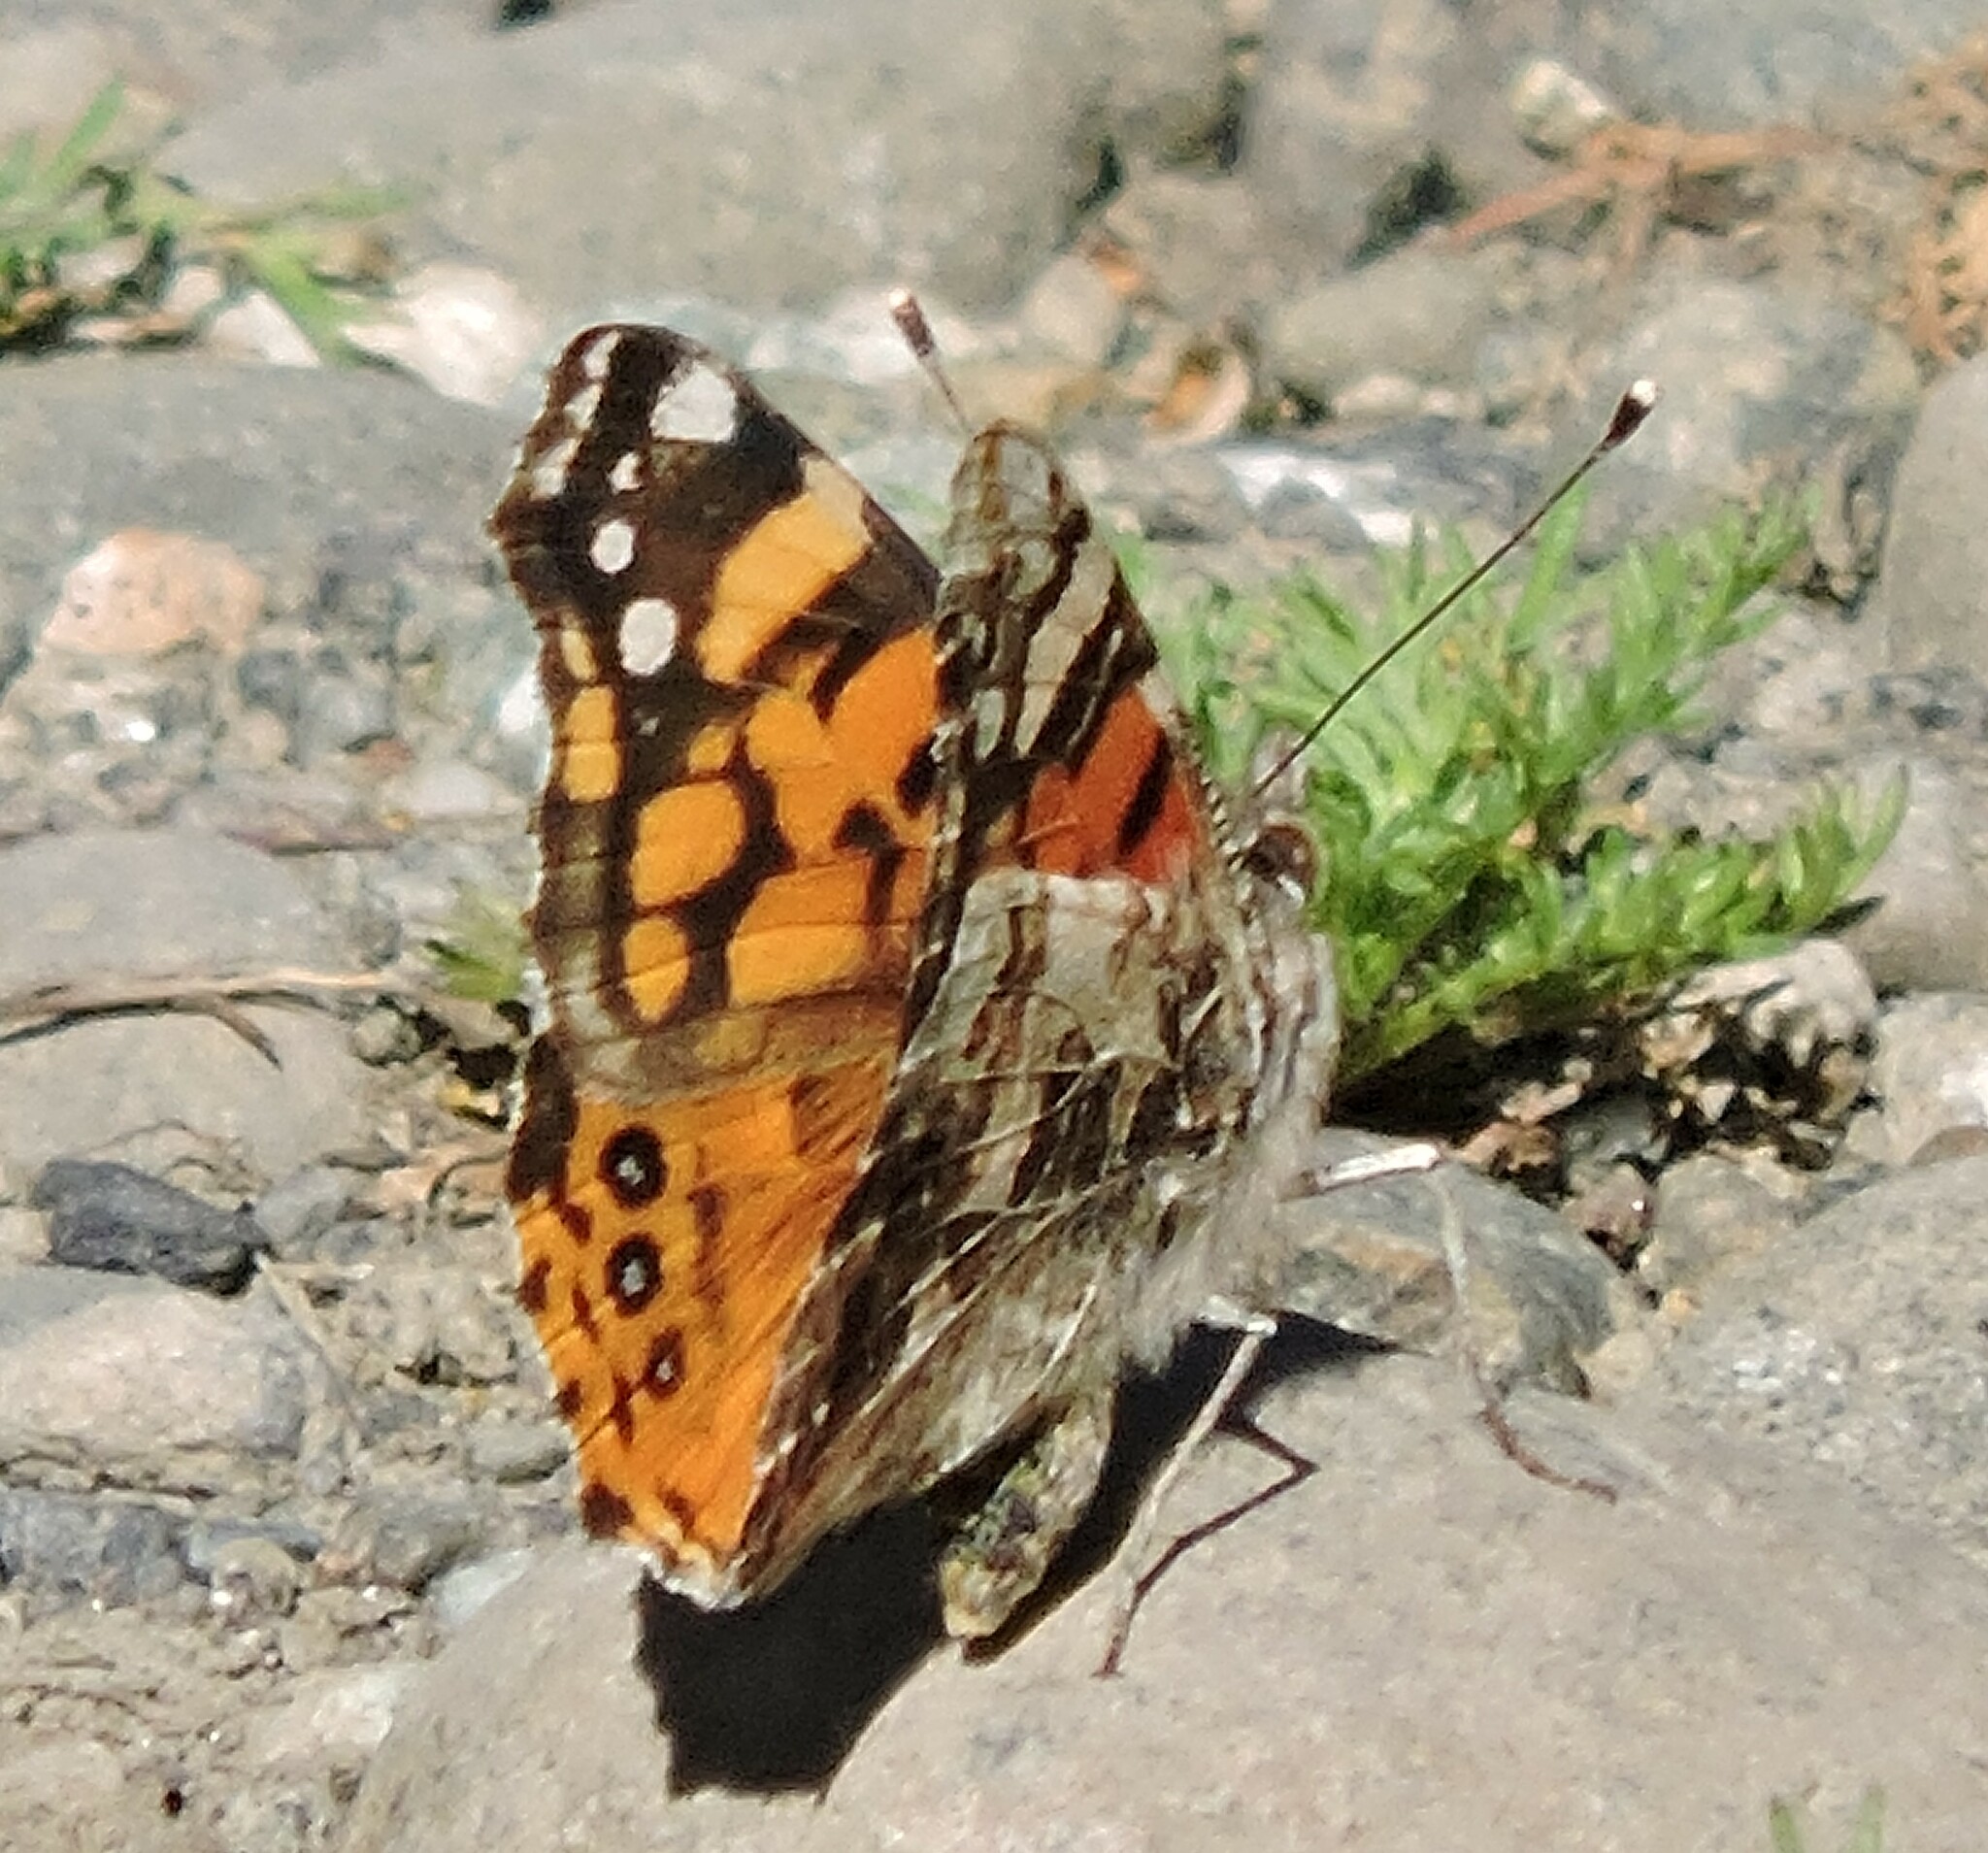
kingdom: Animalia
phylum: Arthropoda
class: Insecta
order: Lepidoptera
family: Nymphalidae
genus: Vanessa
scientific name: Vanessa annabella
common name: West coast lady
